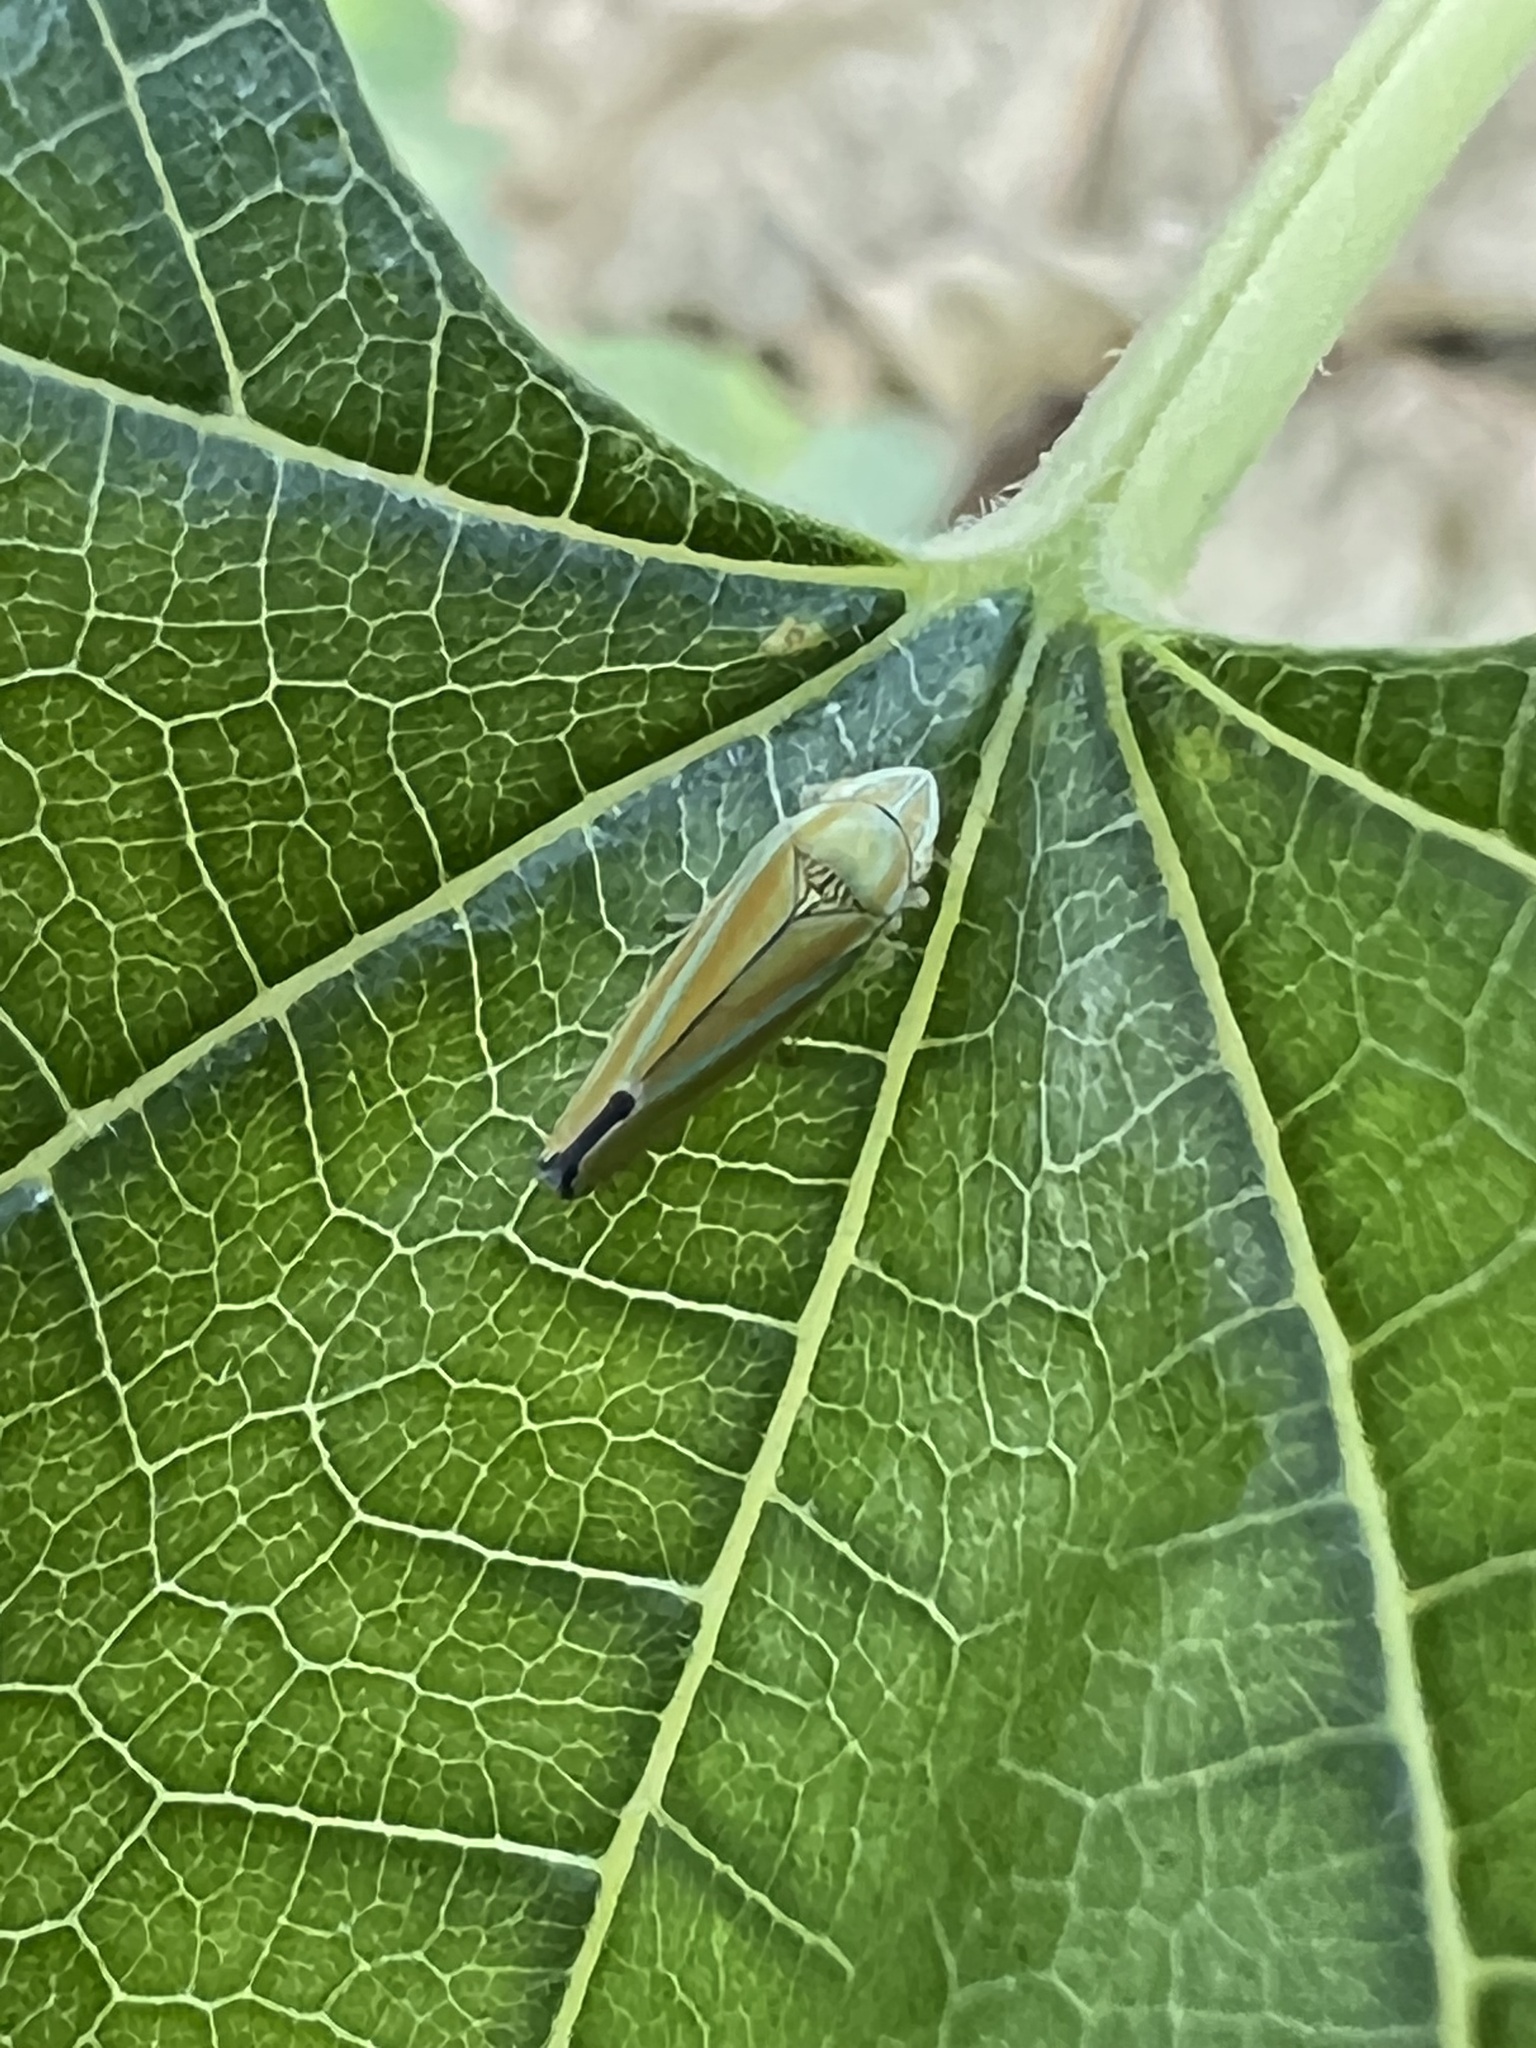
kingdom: Animalia
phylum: Arthropoda
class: Insecta
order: Hemiptera
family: Cicadellidae
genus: Graphocephala
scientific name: Graphocephala versuta
